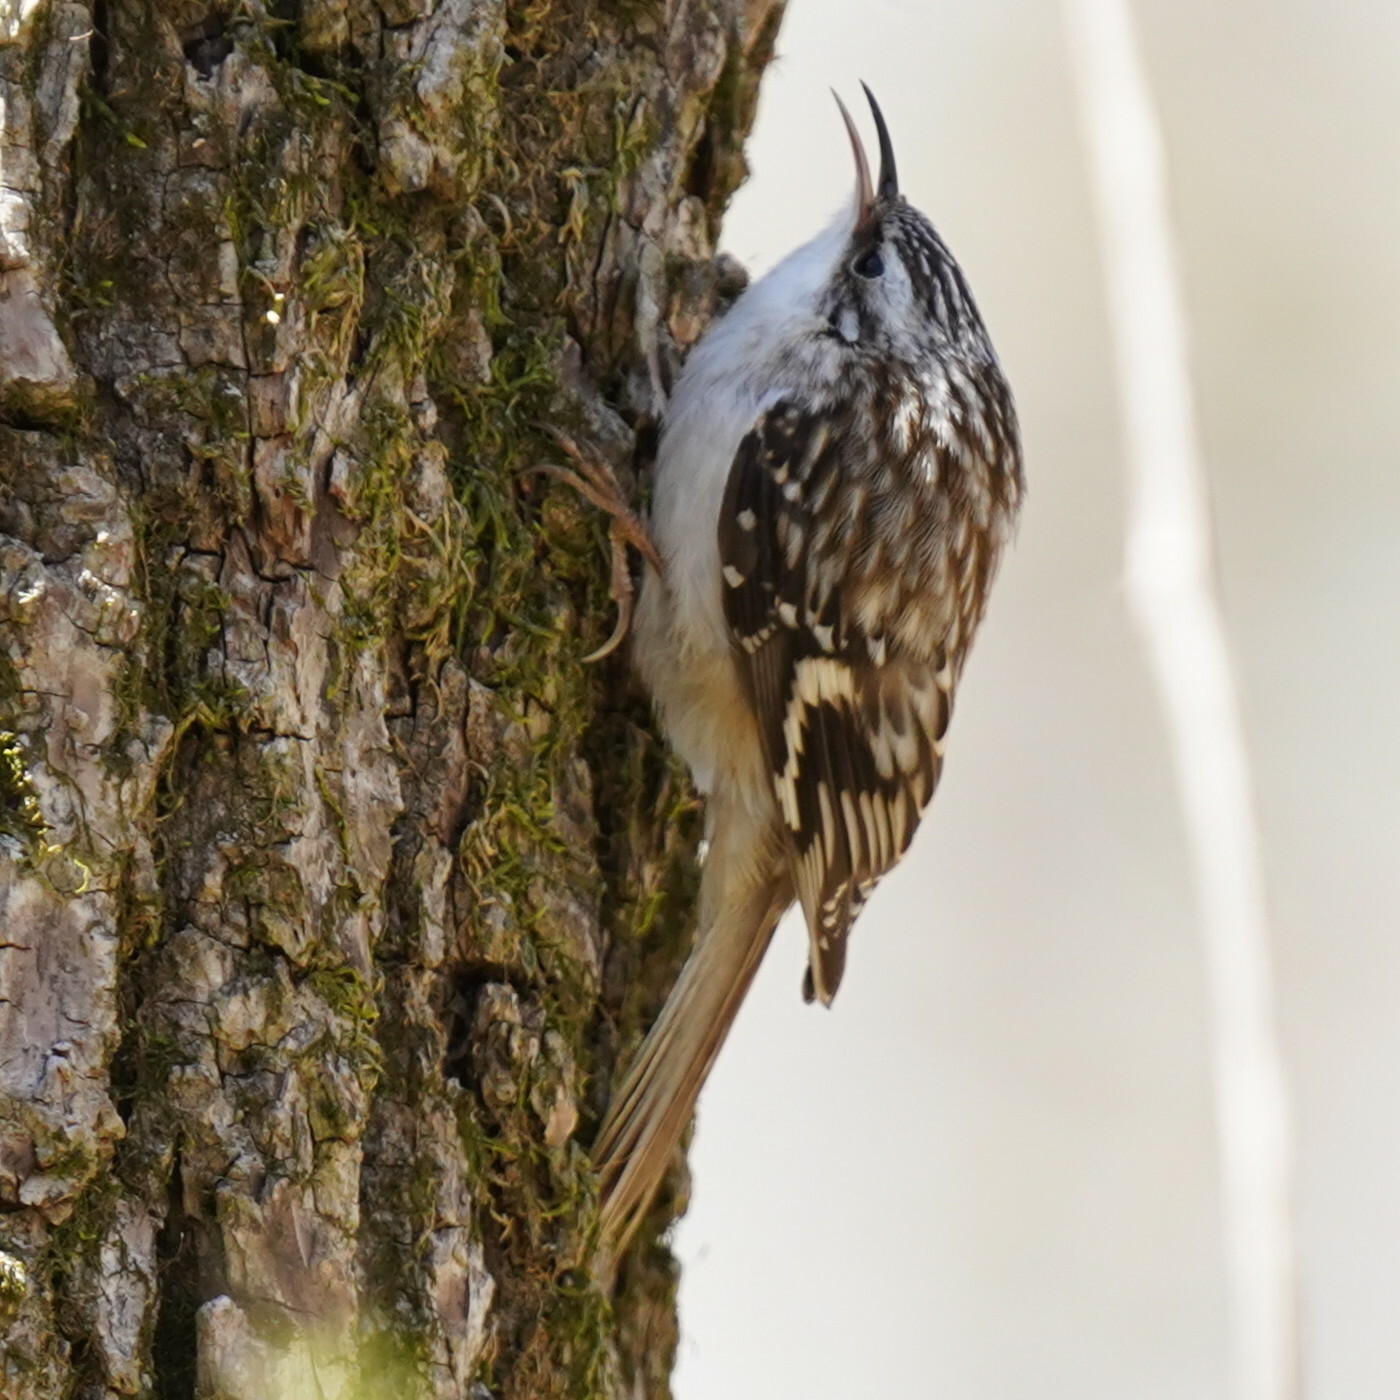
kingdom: Animalia
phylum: Chordata
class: Aves
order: Passeriformes
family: Certhiidae
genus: Certhia
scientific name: Certhia americana
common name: Brown creeper
